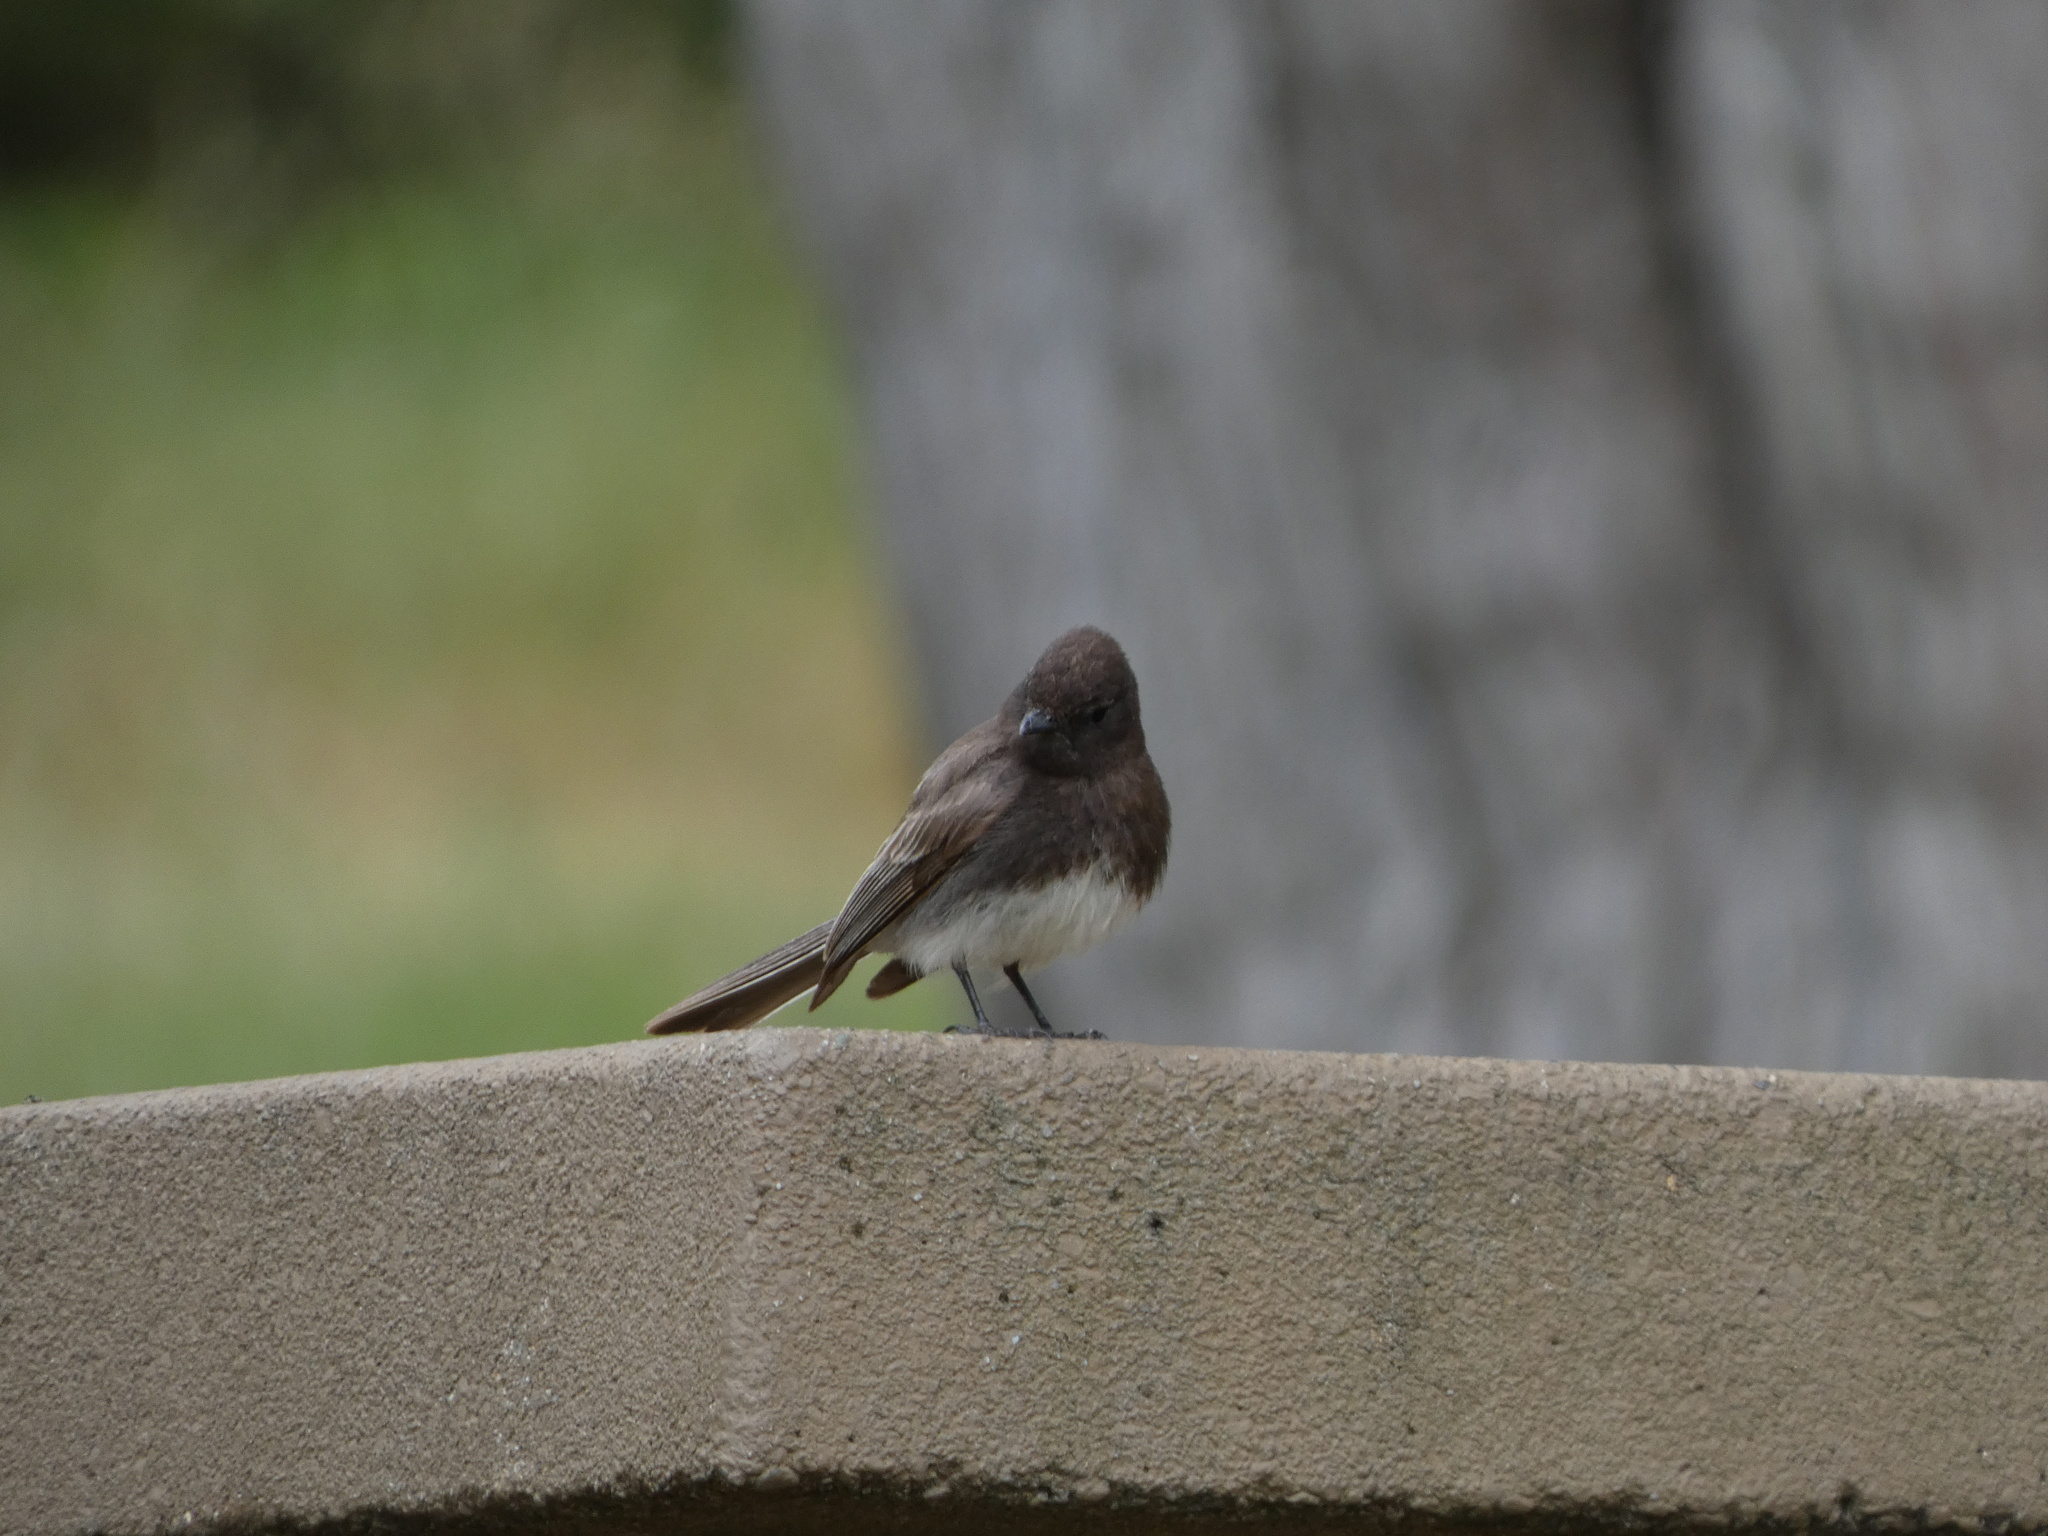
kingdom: Animalia
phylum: Chordata
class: Aves
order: Passeriformes
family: Tyrannidae
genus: Sayornis
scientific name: Sayornis nigricans
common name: Black phoebe
